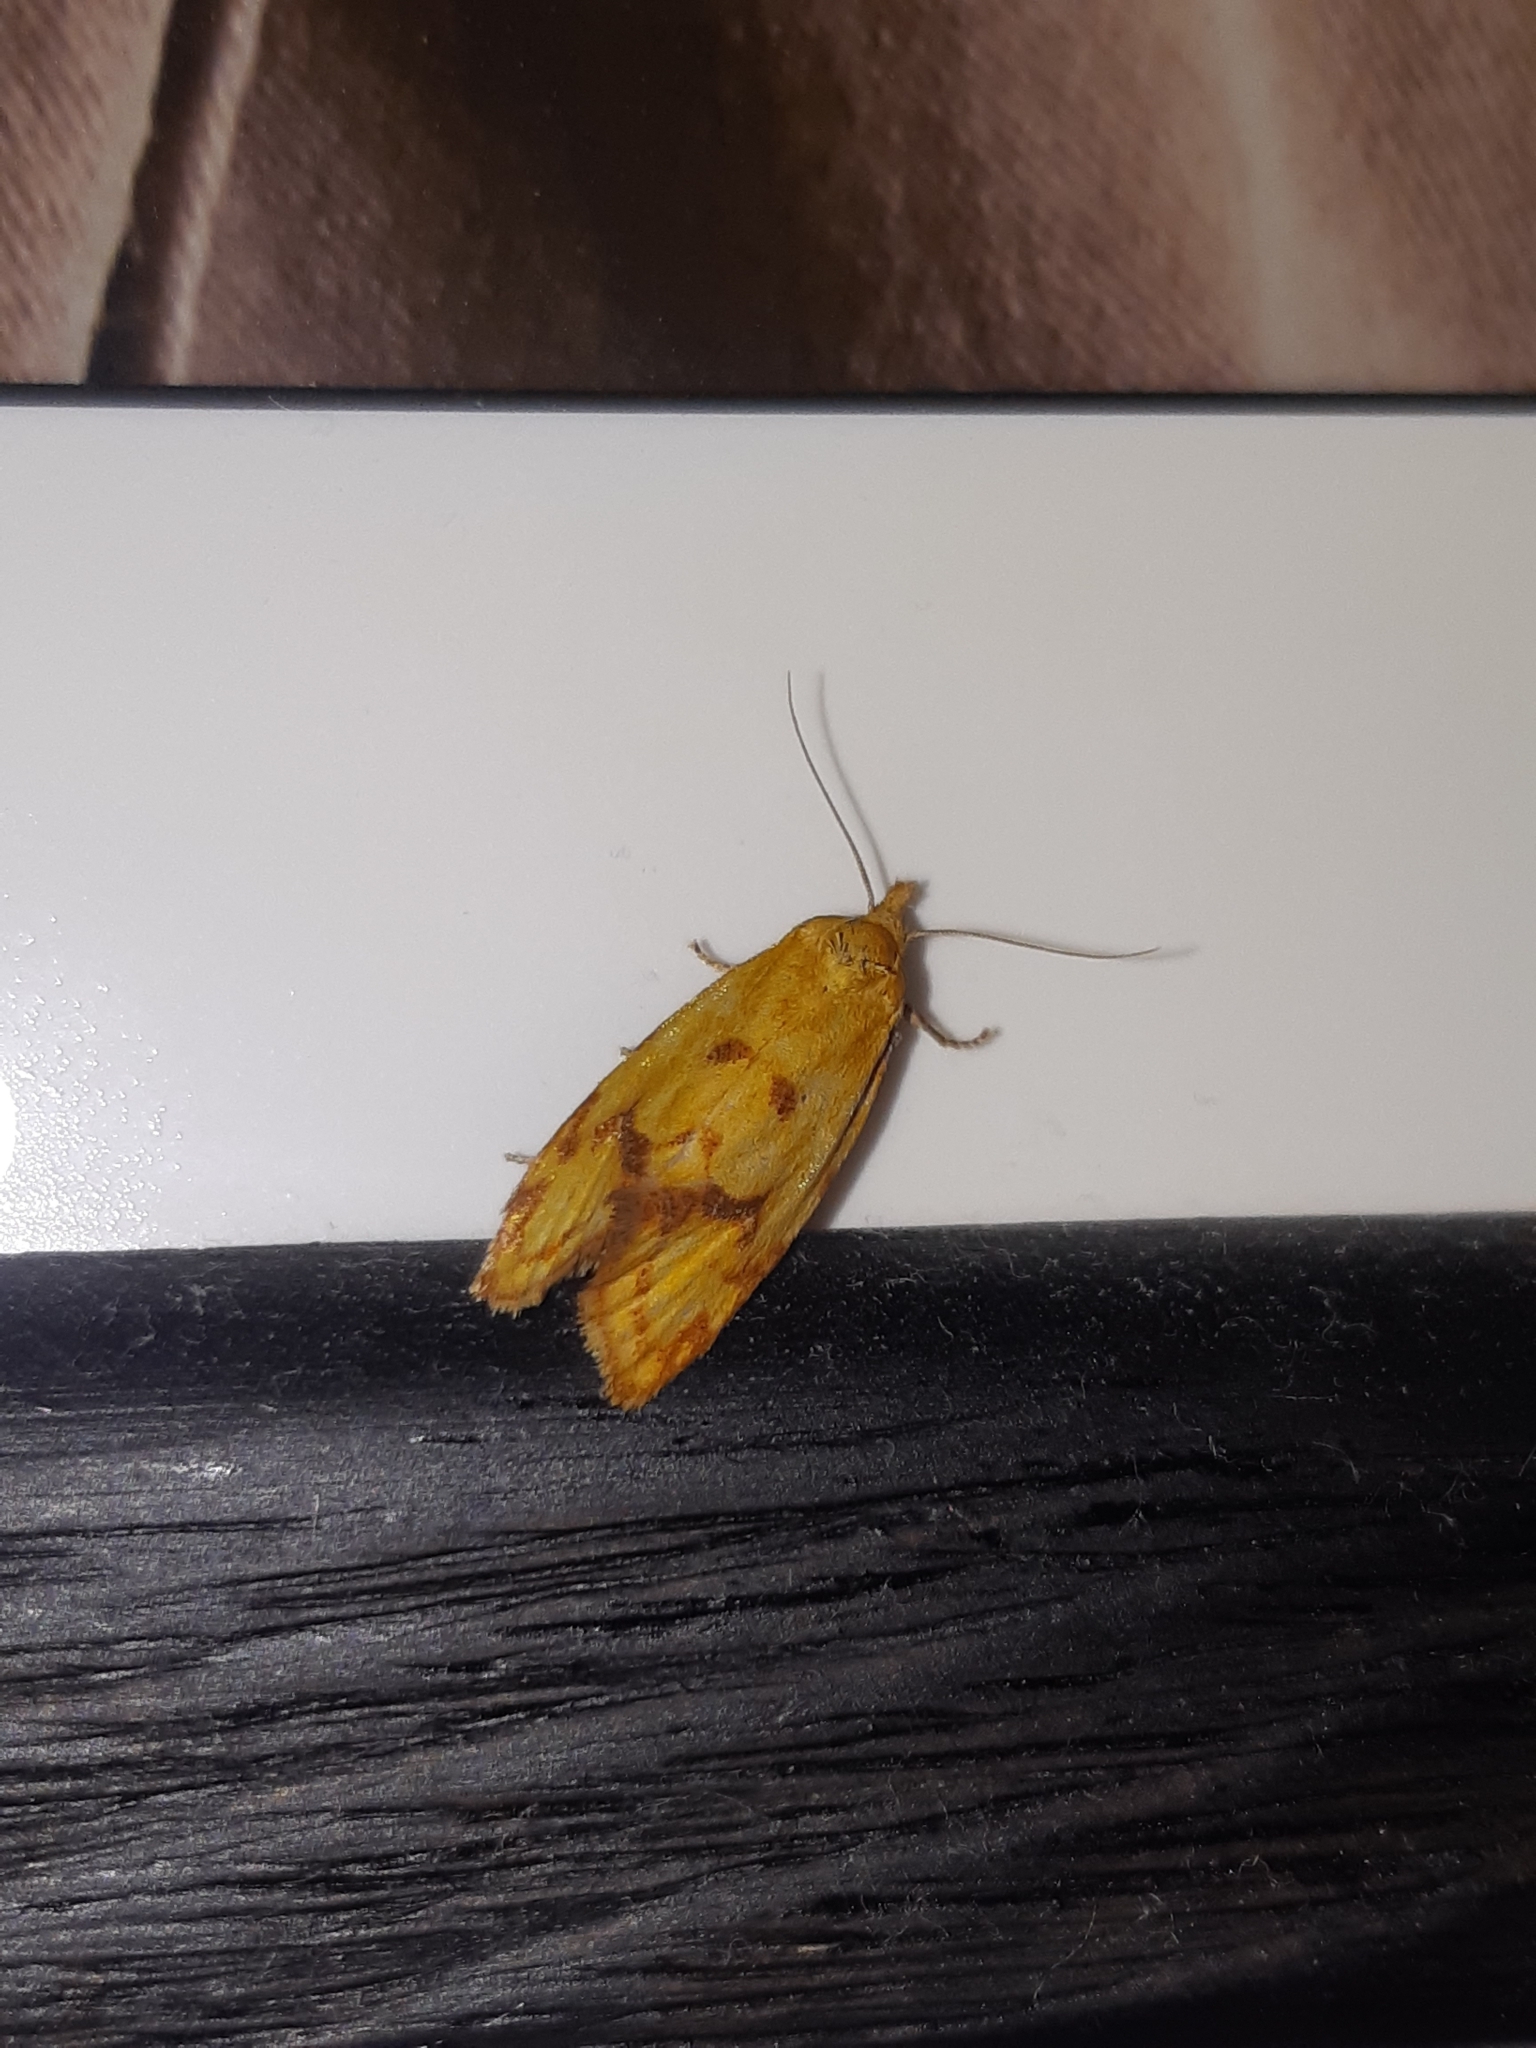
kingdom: Animalia
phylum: Arthropoda
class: Insecta
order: Lepidoptera
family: Tortricidae
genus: Agapeta
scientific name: Agapeta hamana
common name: Common yellow conch
